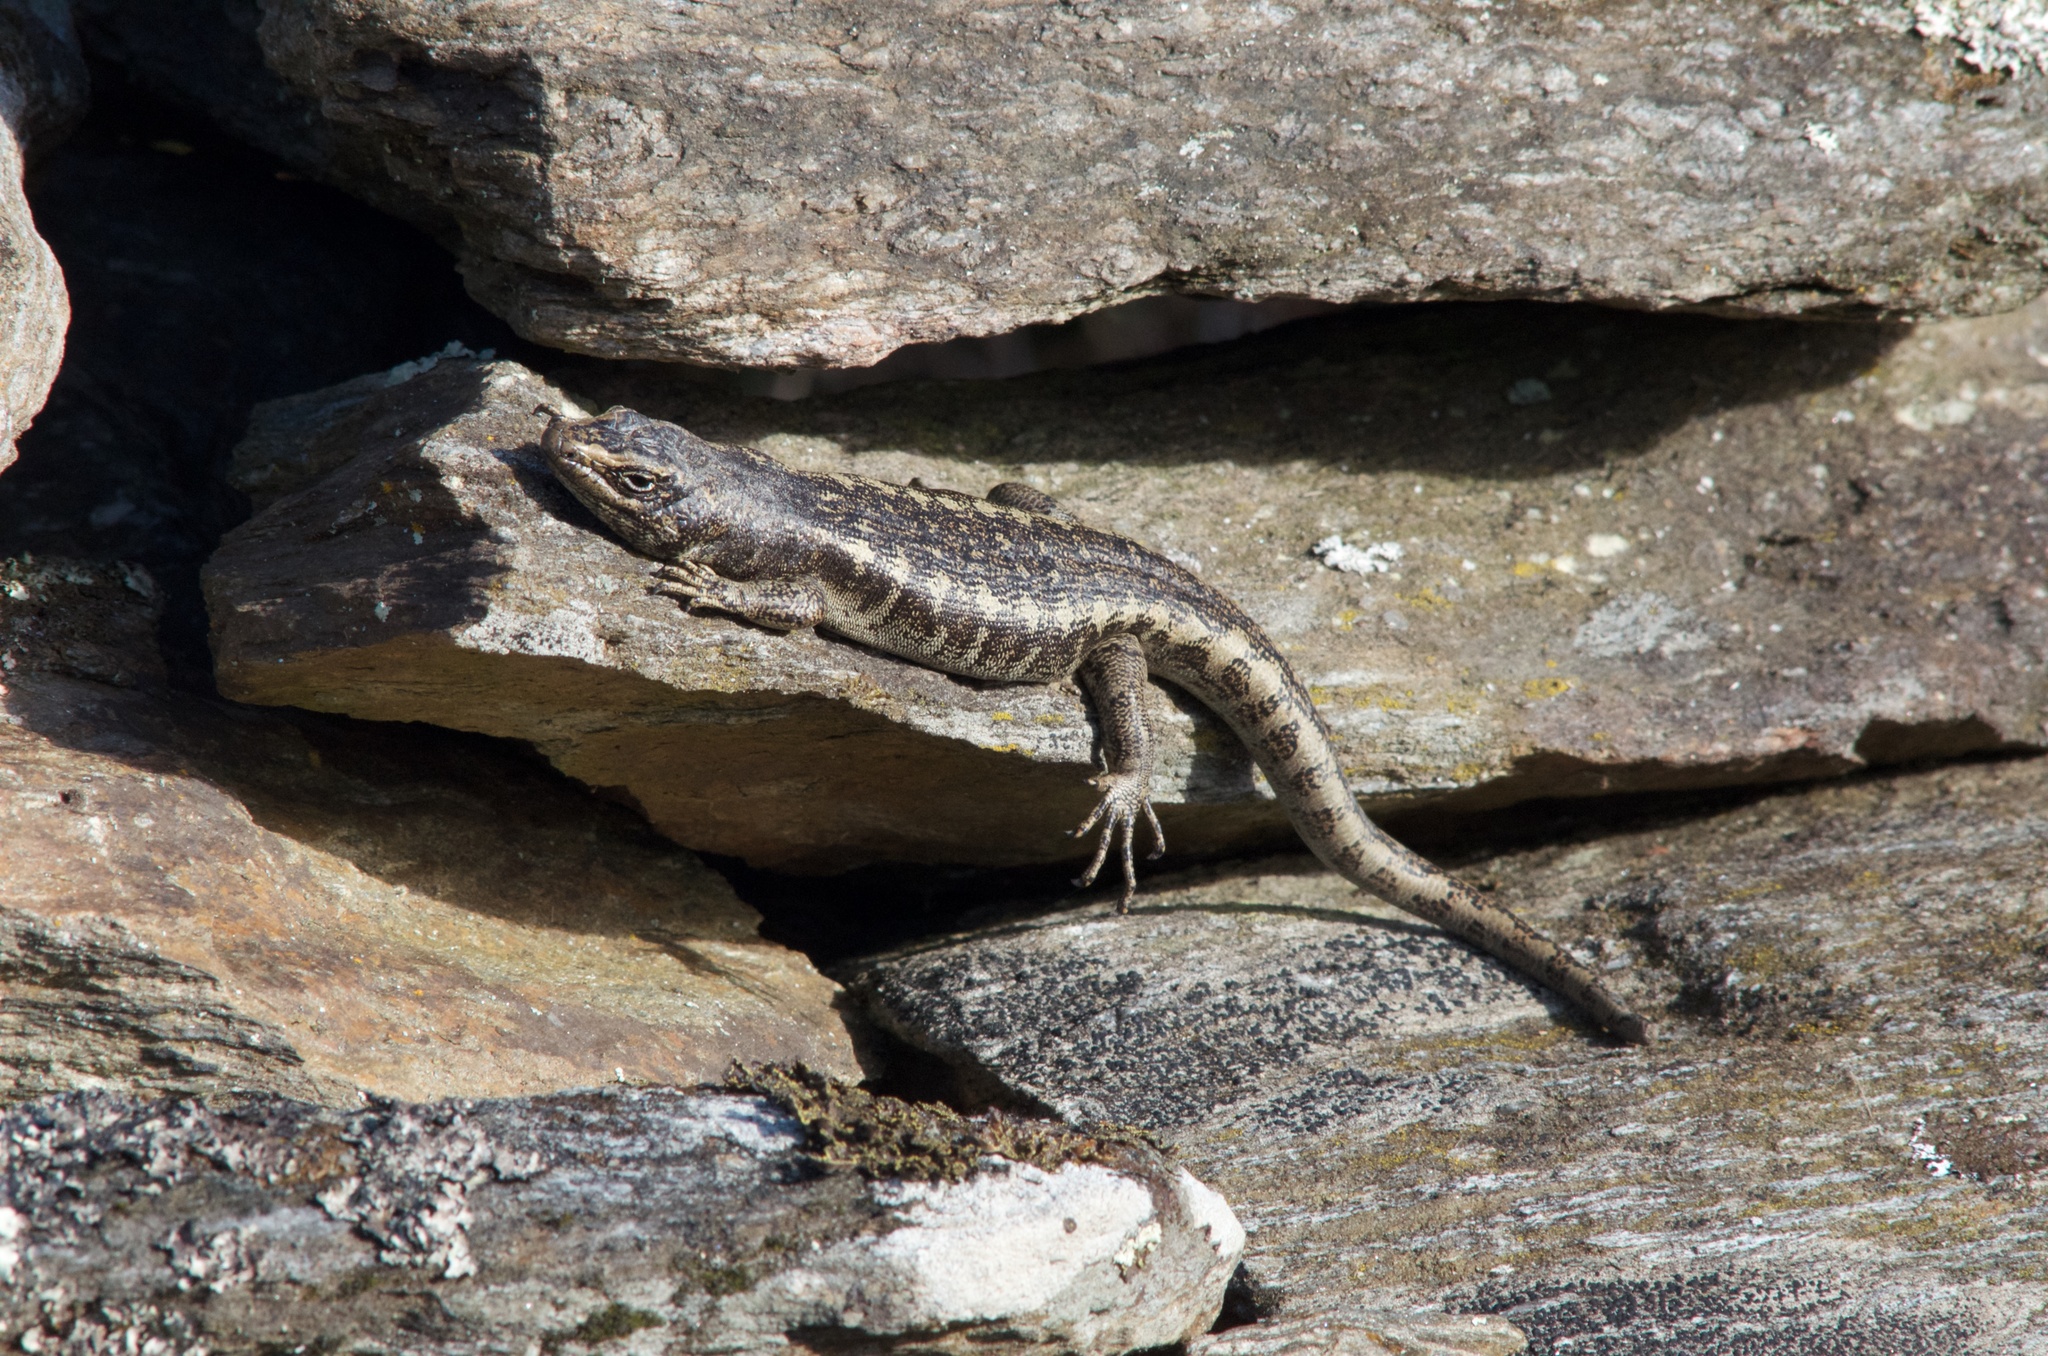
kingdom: Animalia
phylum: Chordata
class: Squamata
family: Scincidae
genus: Oligosoma
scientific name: Oligosoma otagense
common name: Otago skink
